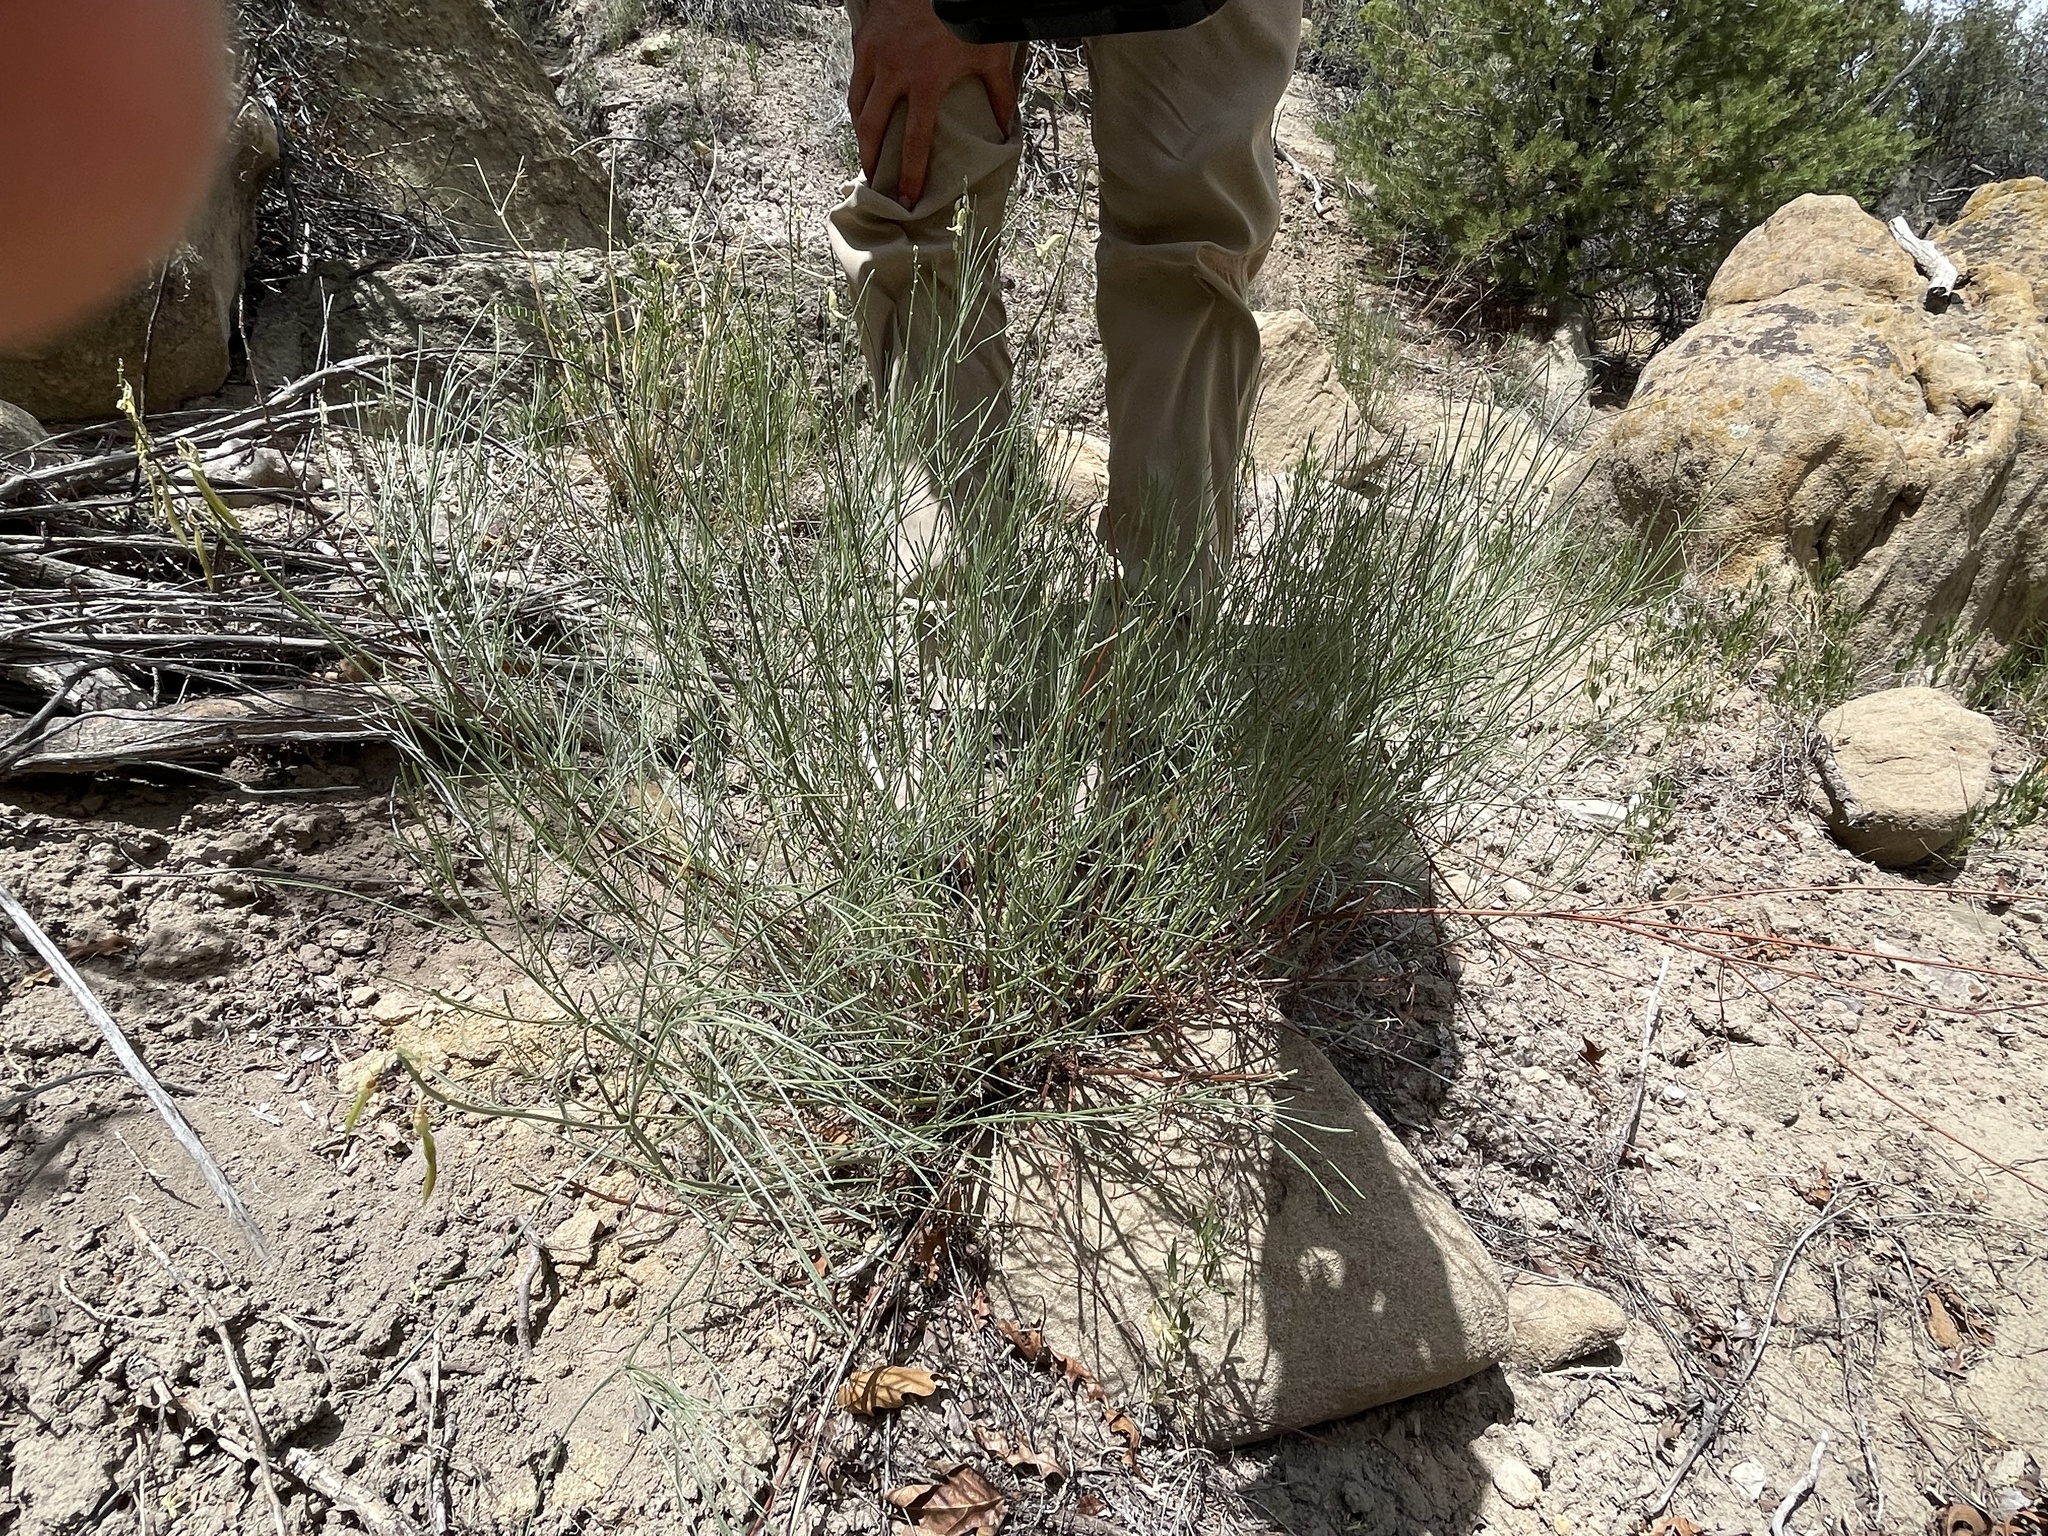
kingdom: Plantae
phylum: Tracheophyta
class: Magnoliopsida
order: Fabales
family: Fabaceae
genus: Astragalus
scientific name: Astragalus lonchocarpus
